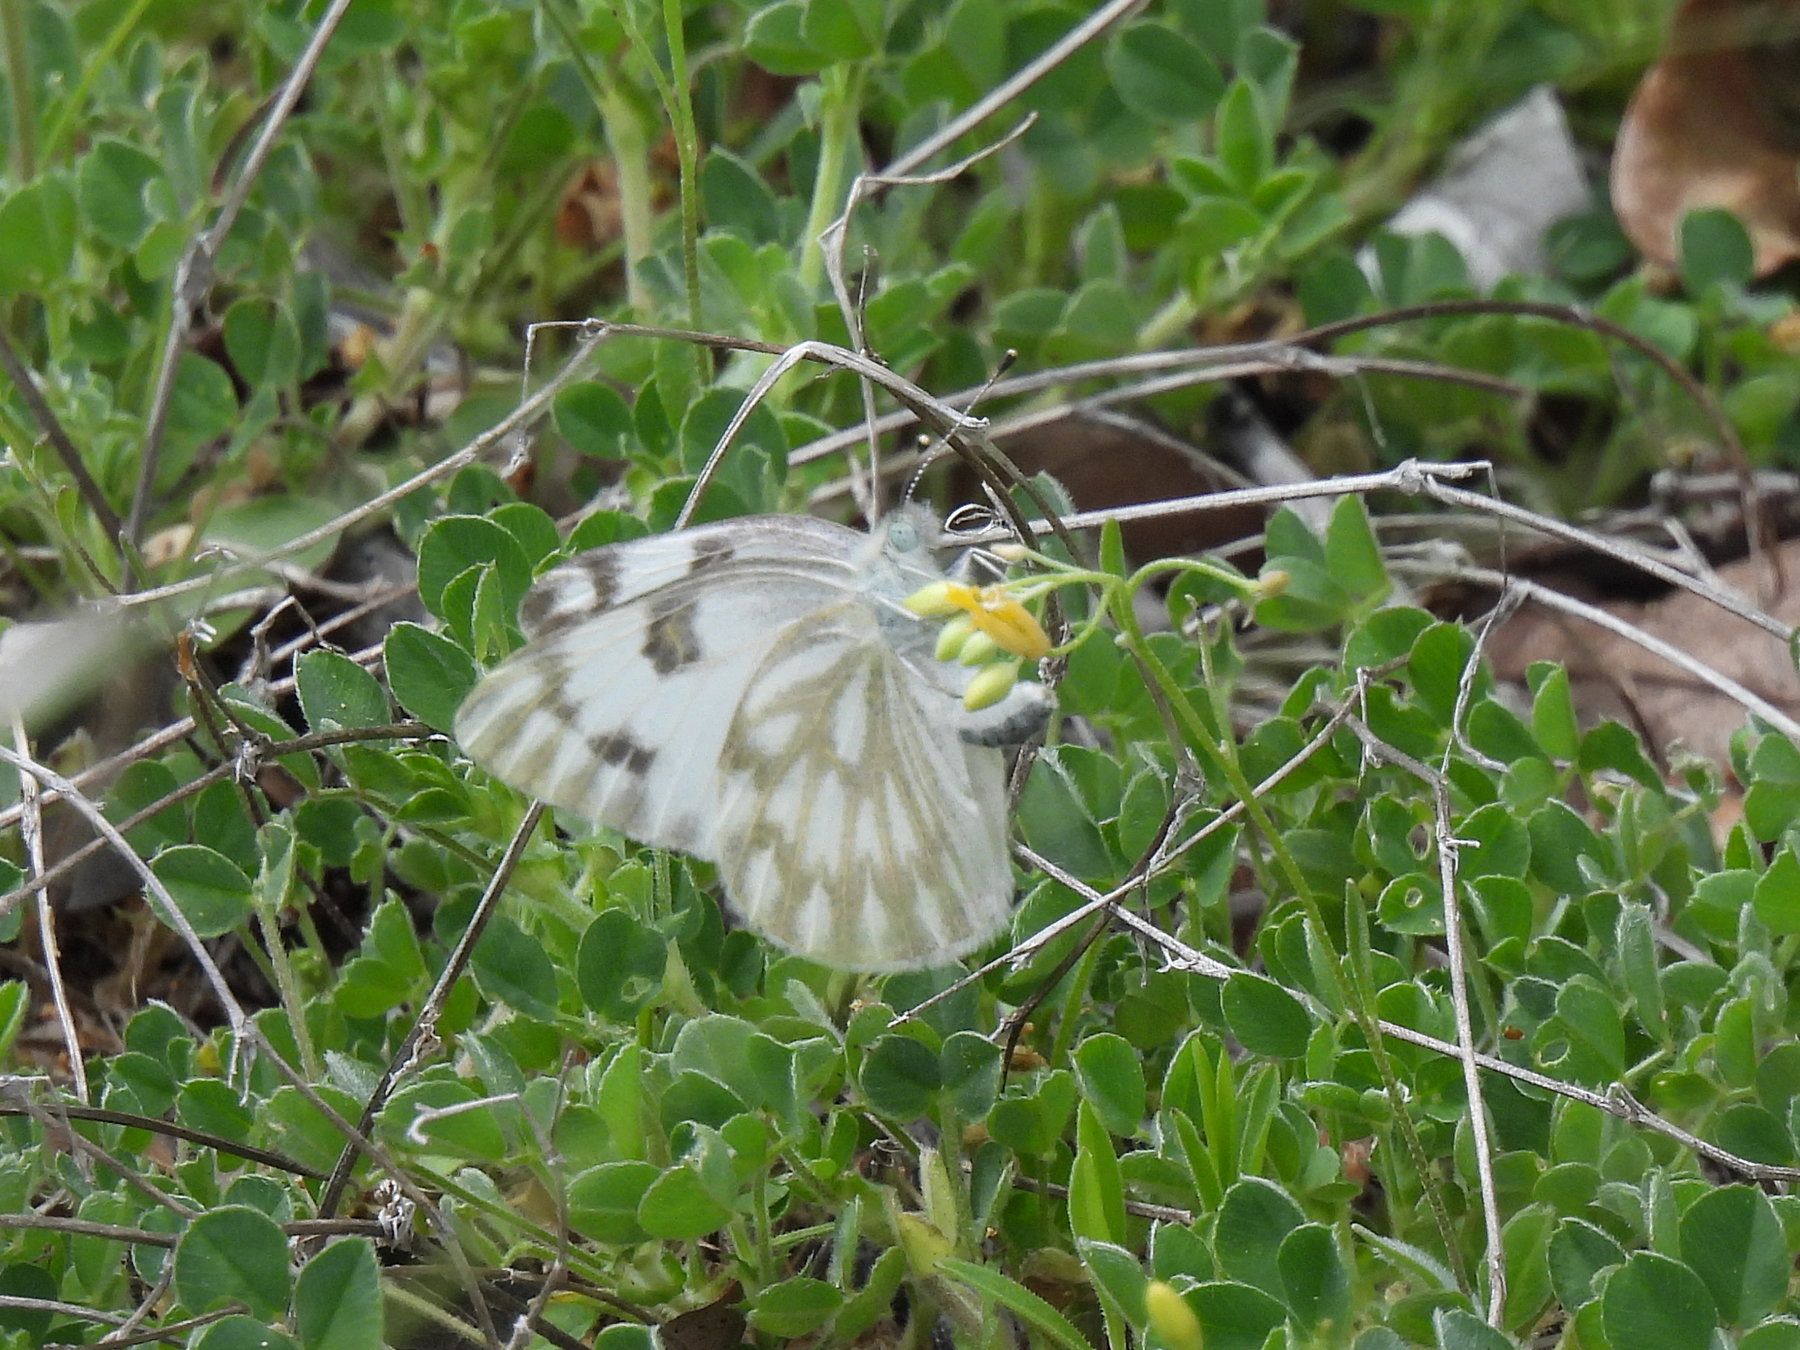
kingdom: Animalia
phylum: Arthropoda
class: Insecta
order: Lepidoptera
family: Pieridae
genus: Pontia
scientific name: Pontia protodice
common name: Checkered white
